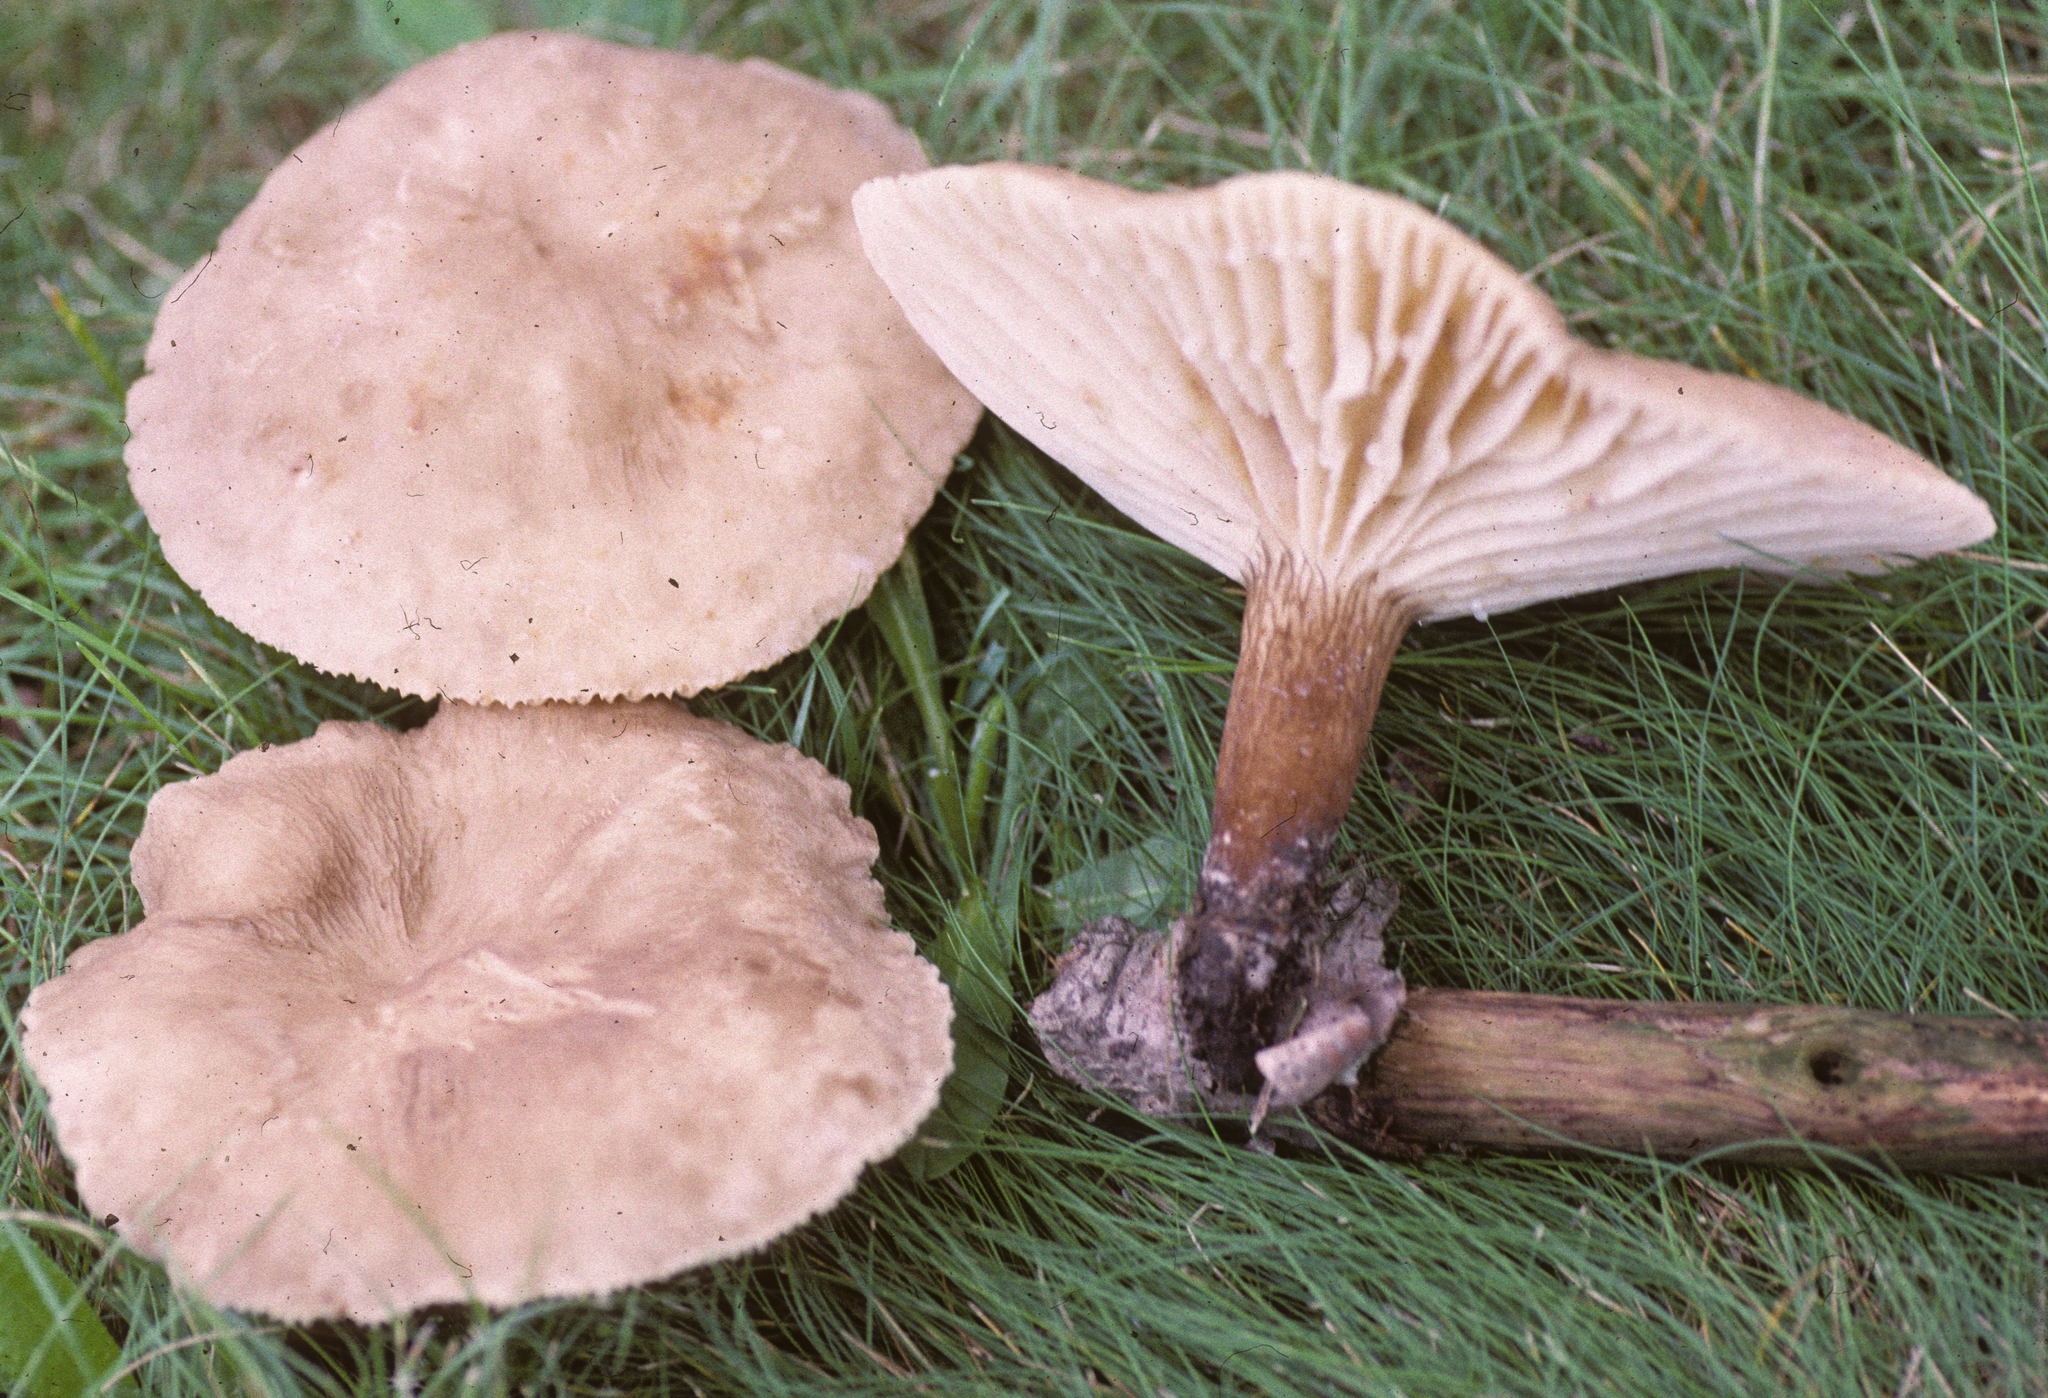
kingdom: Fungi
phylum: Basidiomycota
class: Agaricomycetes
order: Russulales
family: Russulaceae
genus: Lactarius
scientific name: Lactarius subplinthogalus
